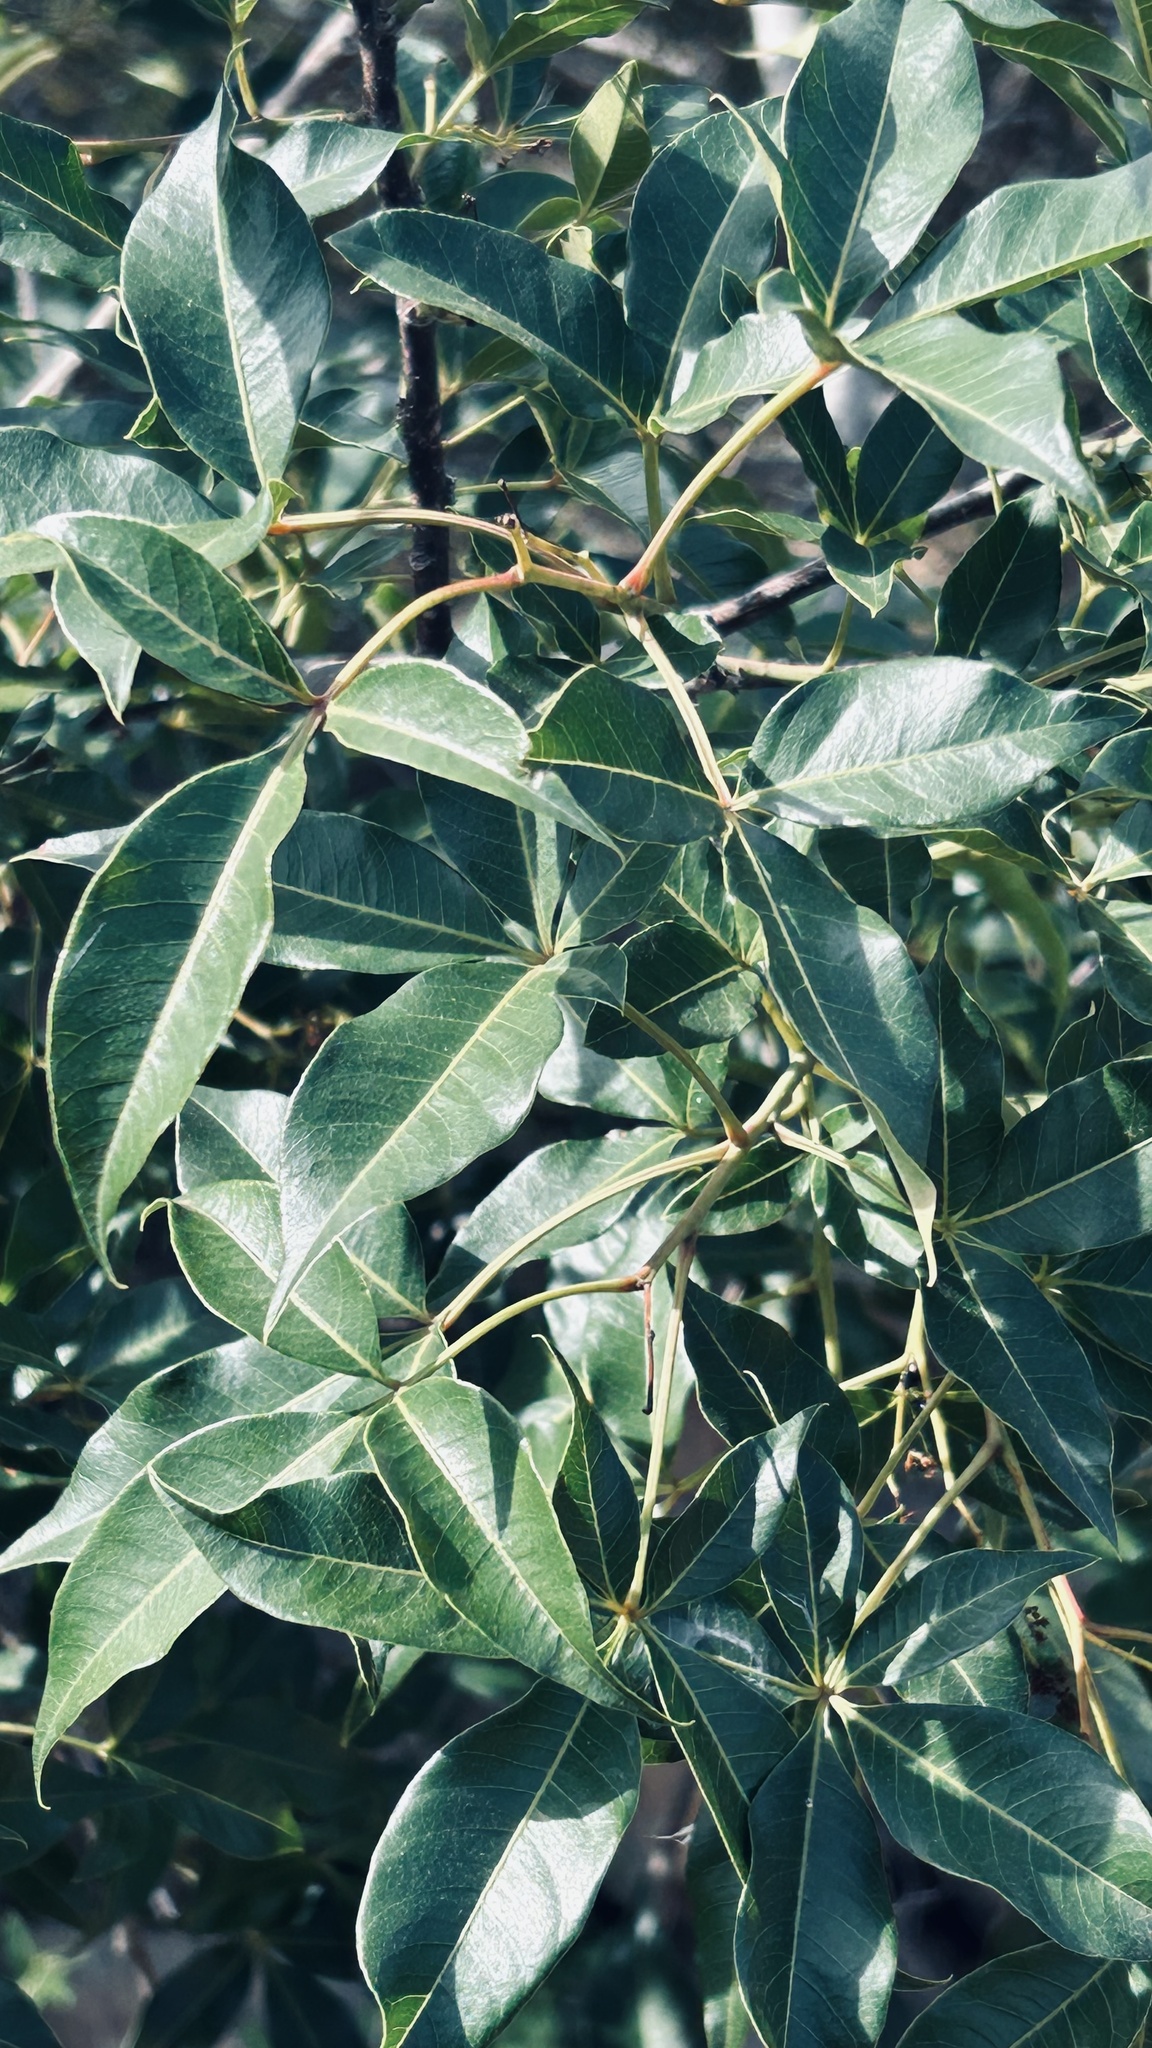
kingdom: Plantae
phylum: Tracheophyta
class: Magnoliopsida
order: Sapindales
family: Anacardiaceae
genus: Searsia
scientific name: Searsia chirindensis
